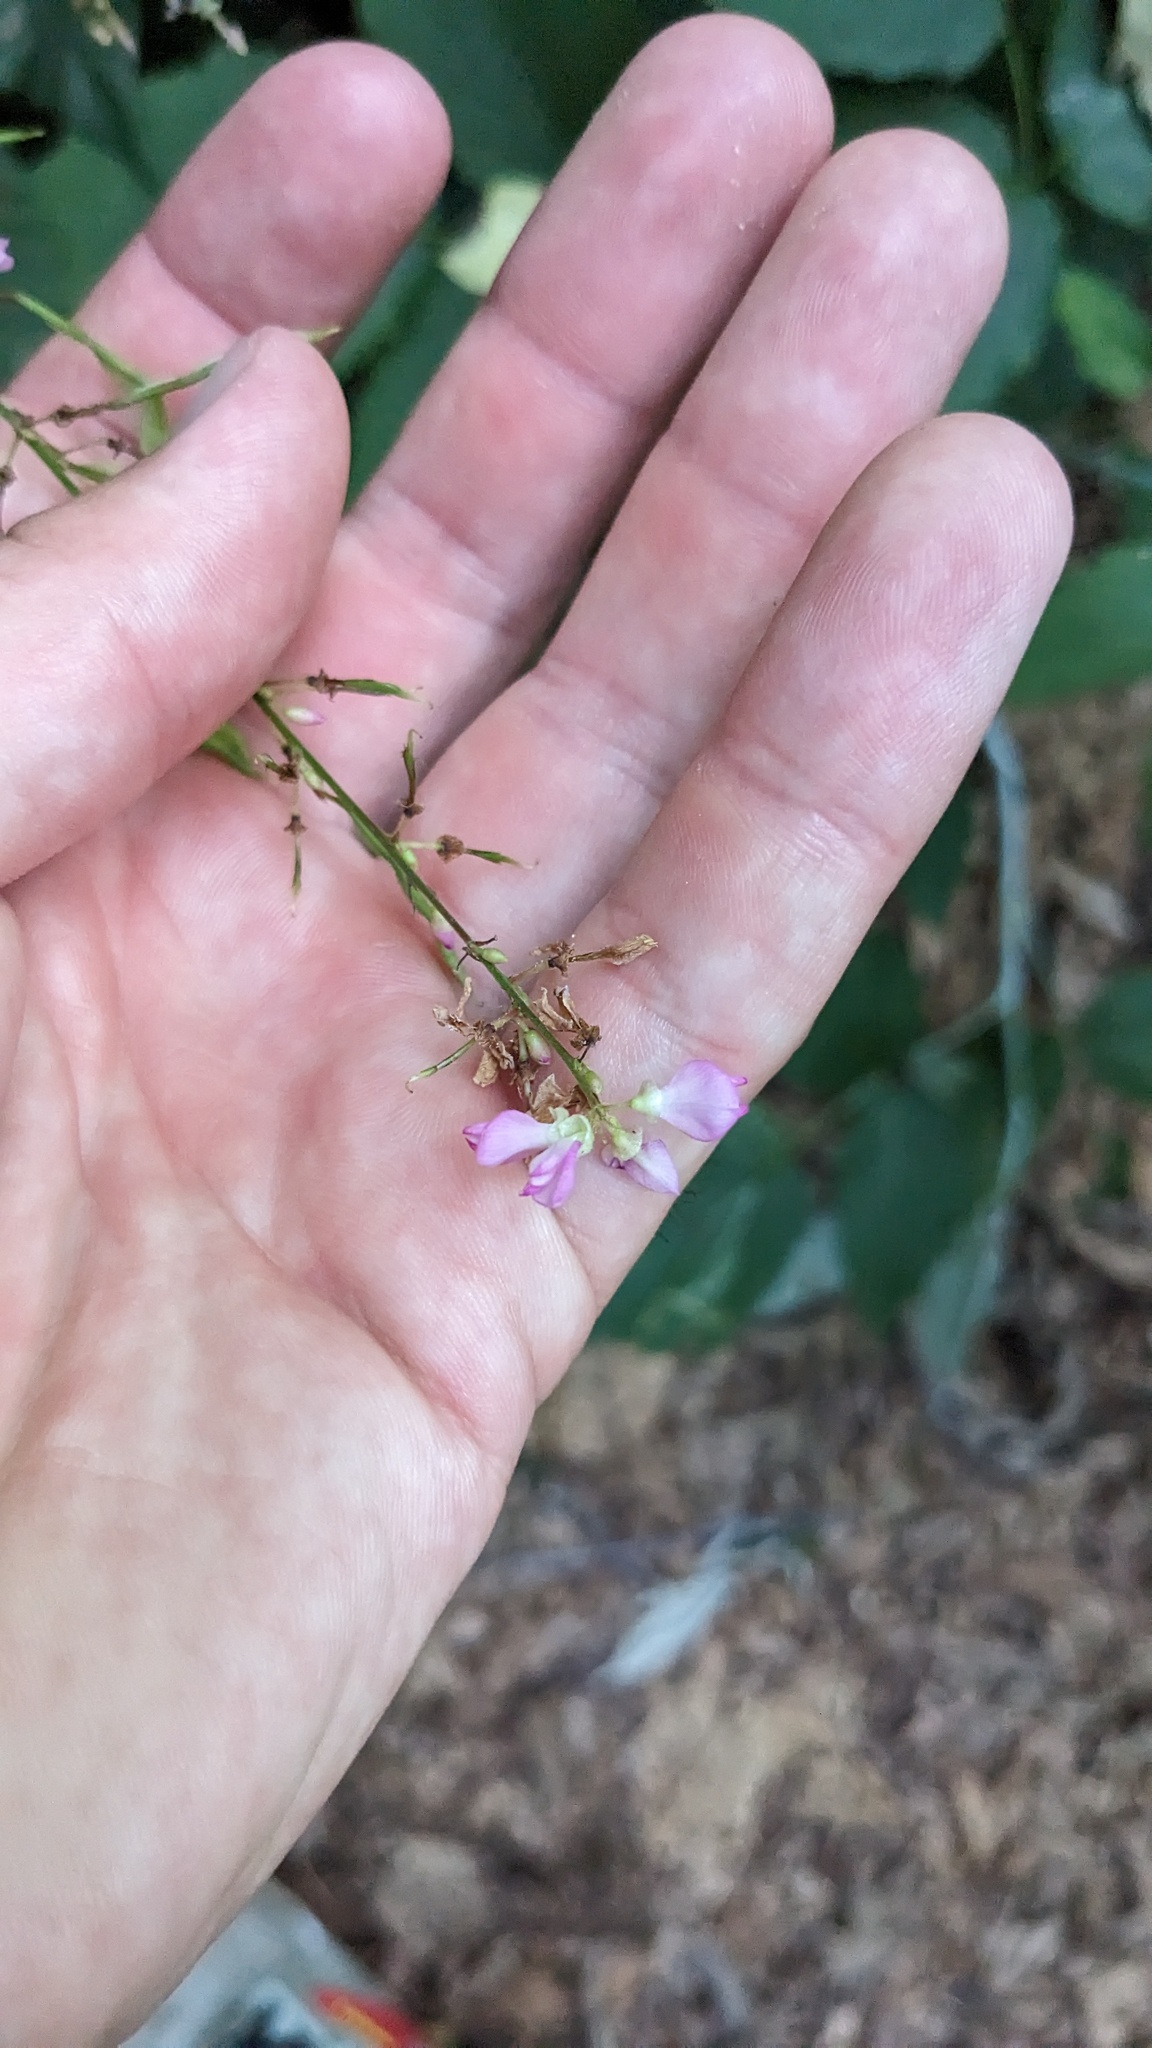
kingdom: Plantae
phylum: Tracheophyta
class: Magnoliopsida
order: Fabales
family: Fabaceae
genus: Hylodesmum
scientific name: Hylodesmum glutinosum
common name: Clustered-leaved tick-trefoil
